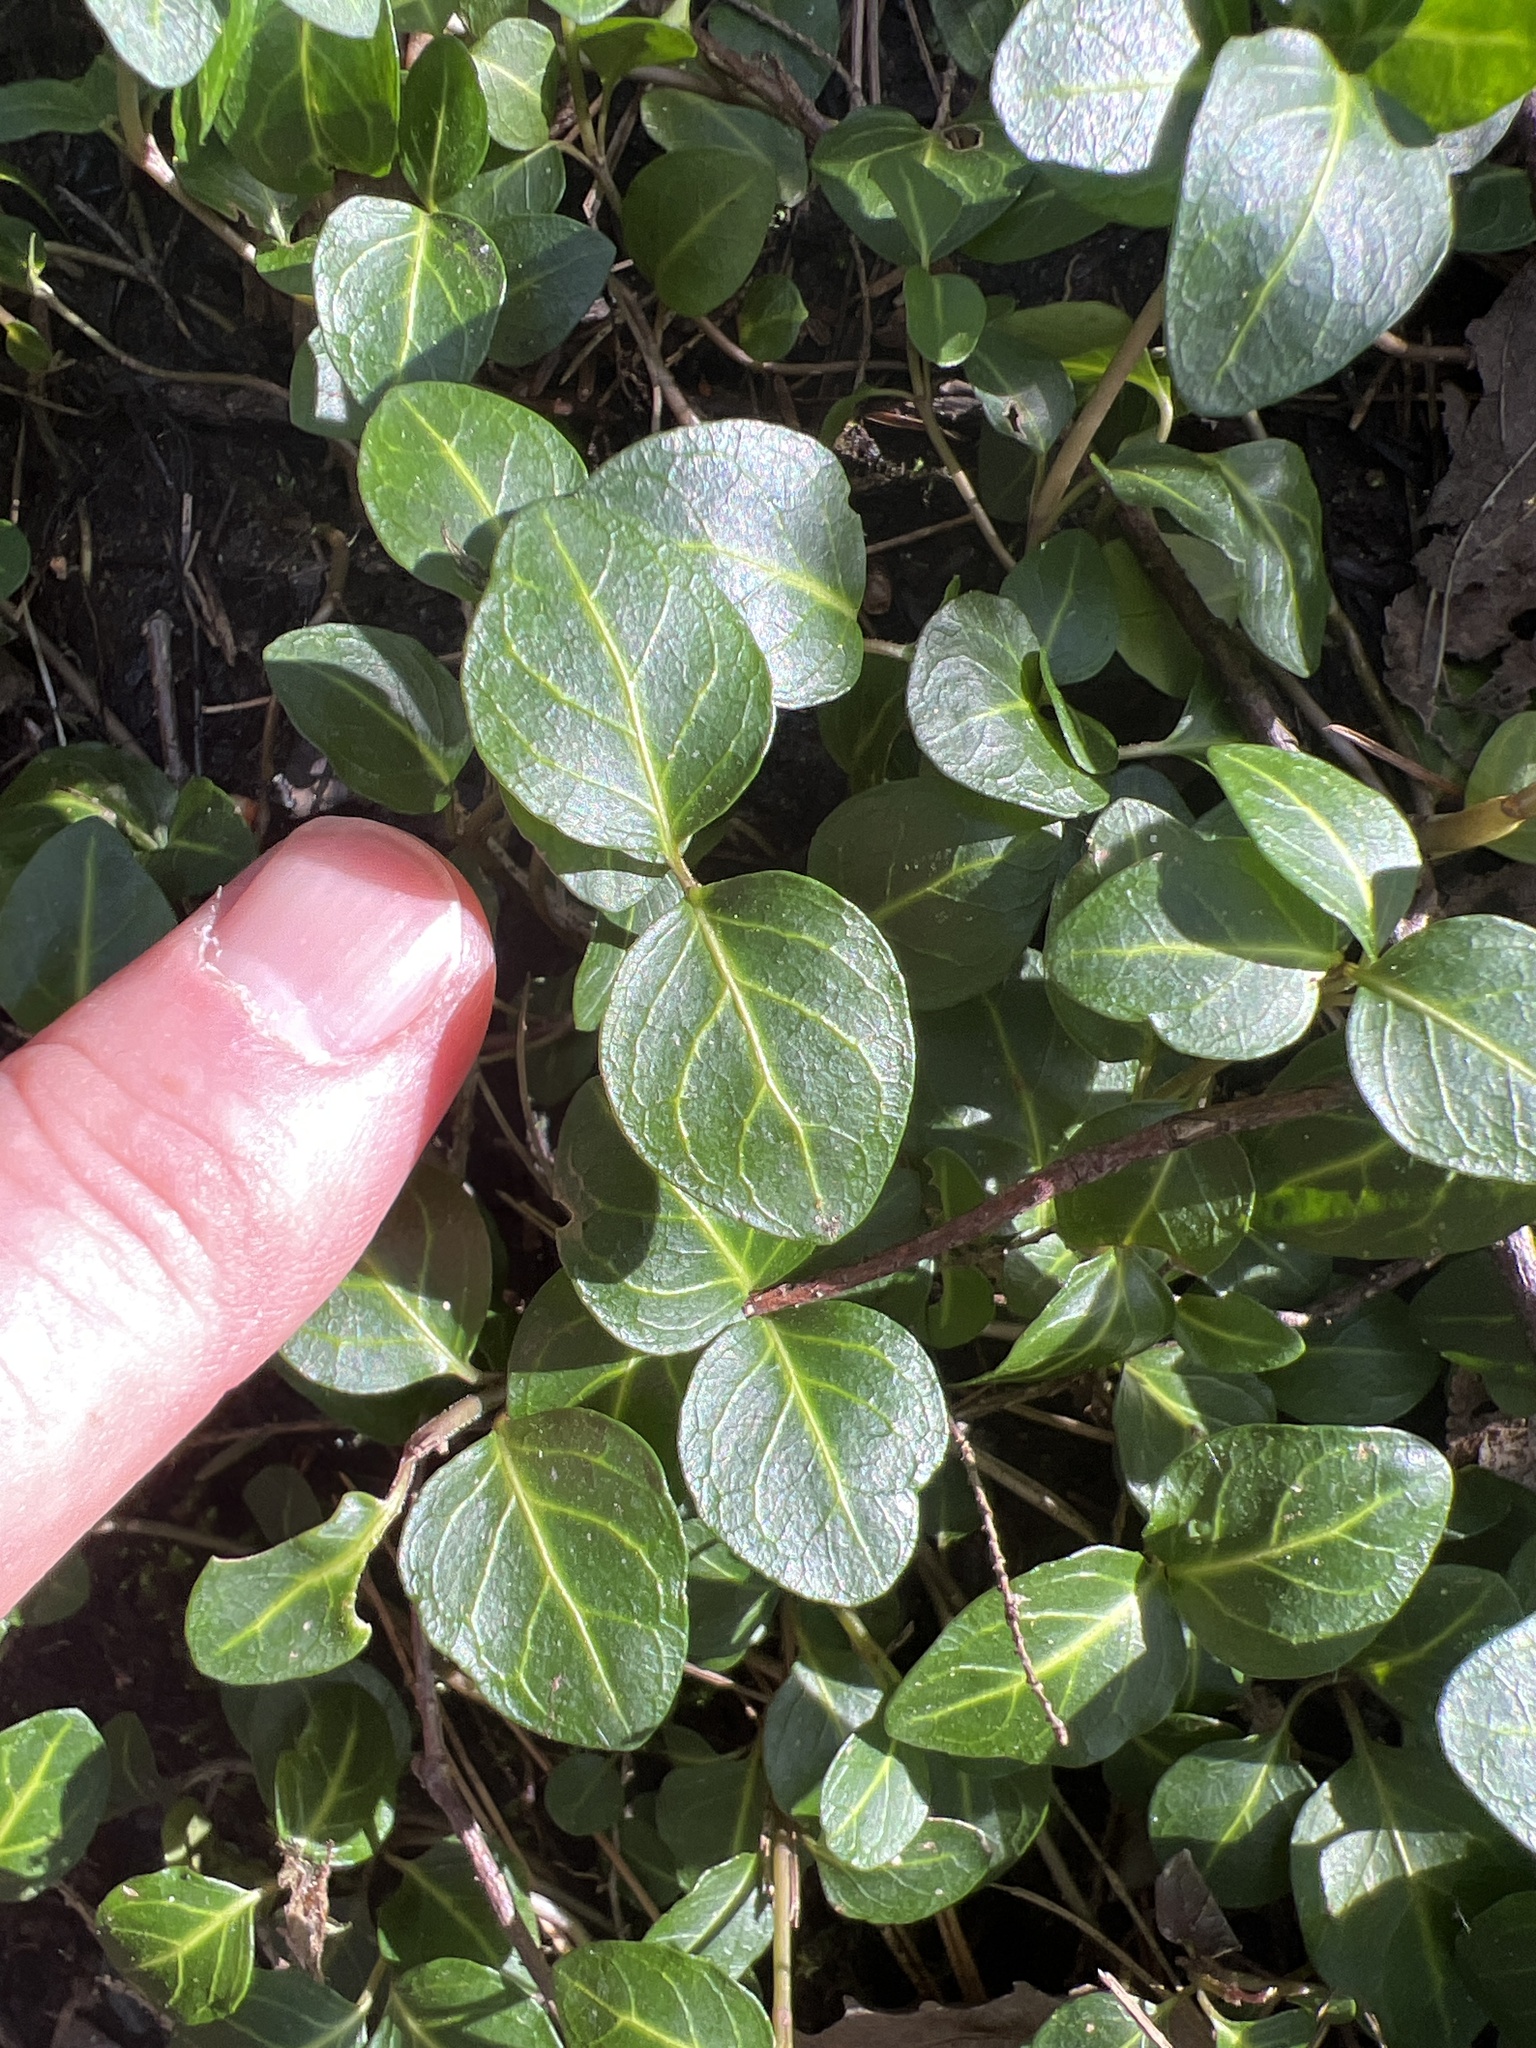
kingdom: Plantae
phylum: Tracheophyta
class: Magnoliopsida
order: Gentianales
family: Rubiaceae
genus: Mitchella
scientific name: Mitchella repens
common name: Partridge-berry
